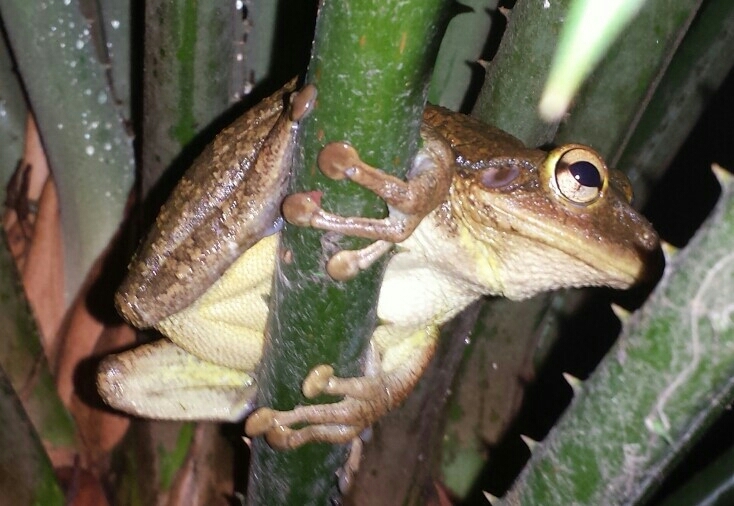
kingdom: Animalia
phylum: Chordata
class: Amphibia
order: Anura
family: Hylidae
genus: Osteopilus
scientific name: Osteopilus septentrionalis
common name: Cuban treefrog
